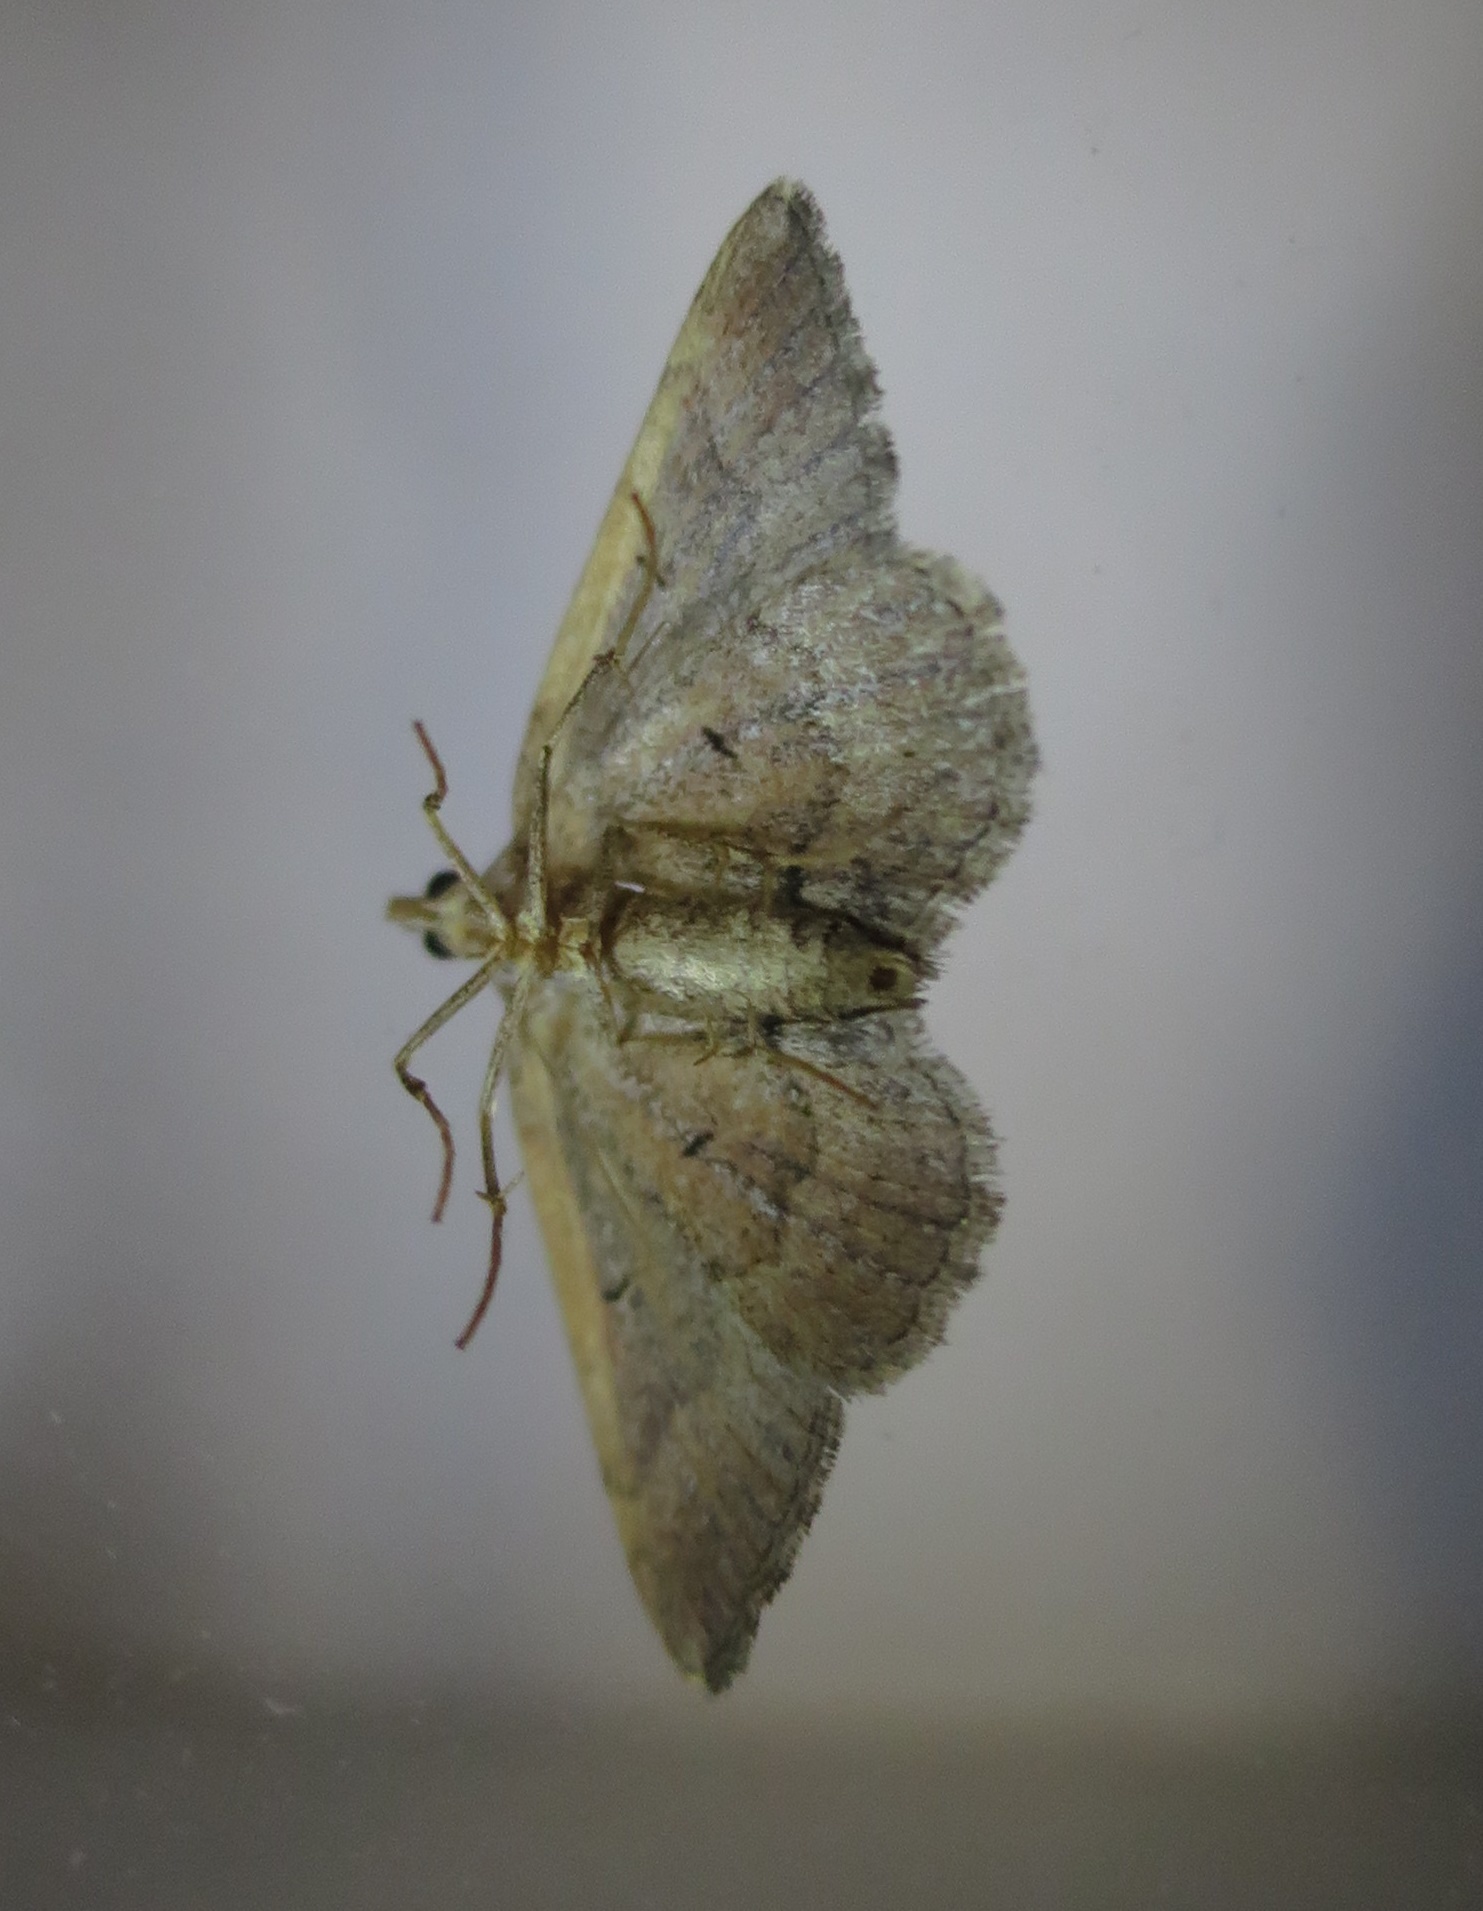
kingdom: Animalia
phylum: Arthropoda
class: Insecta
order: Lepidoptera
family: Geometridae
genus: Epyaxa
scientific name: Epyaxa rosearia
